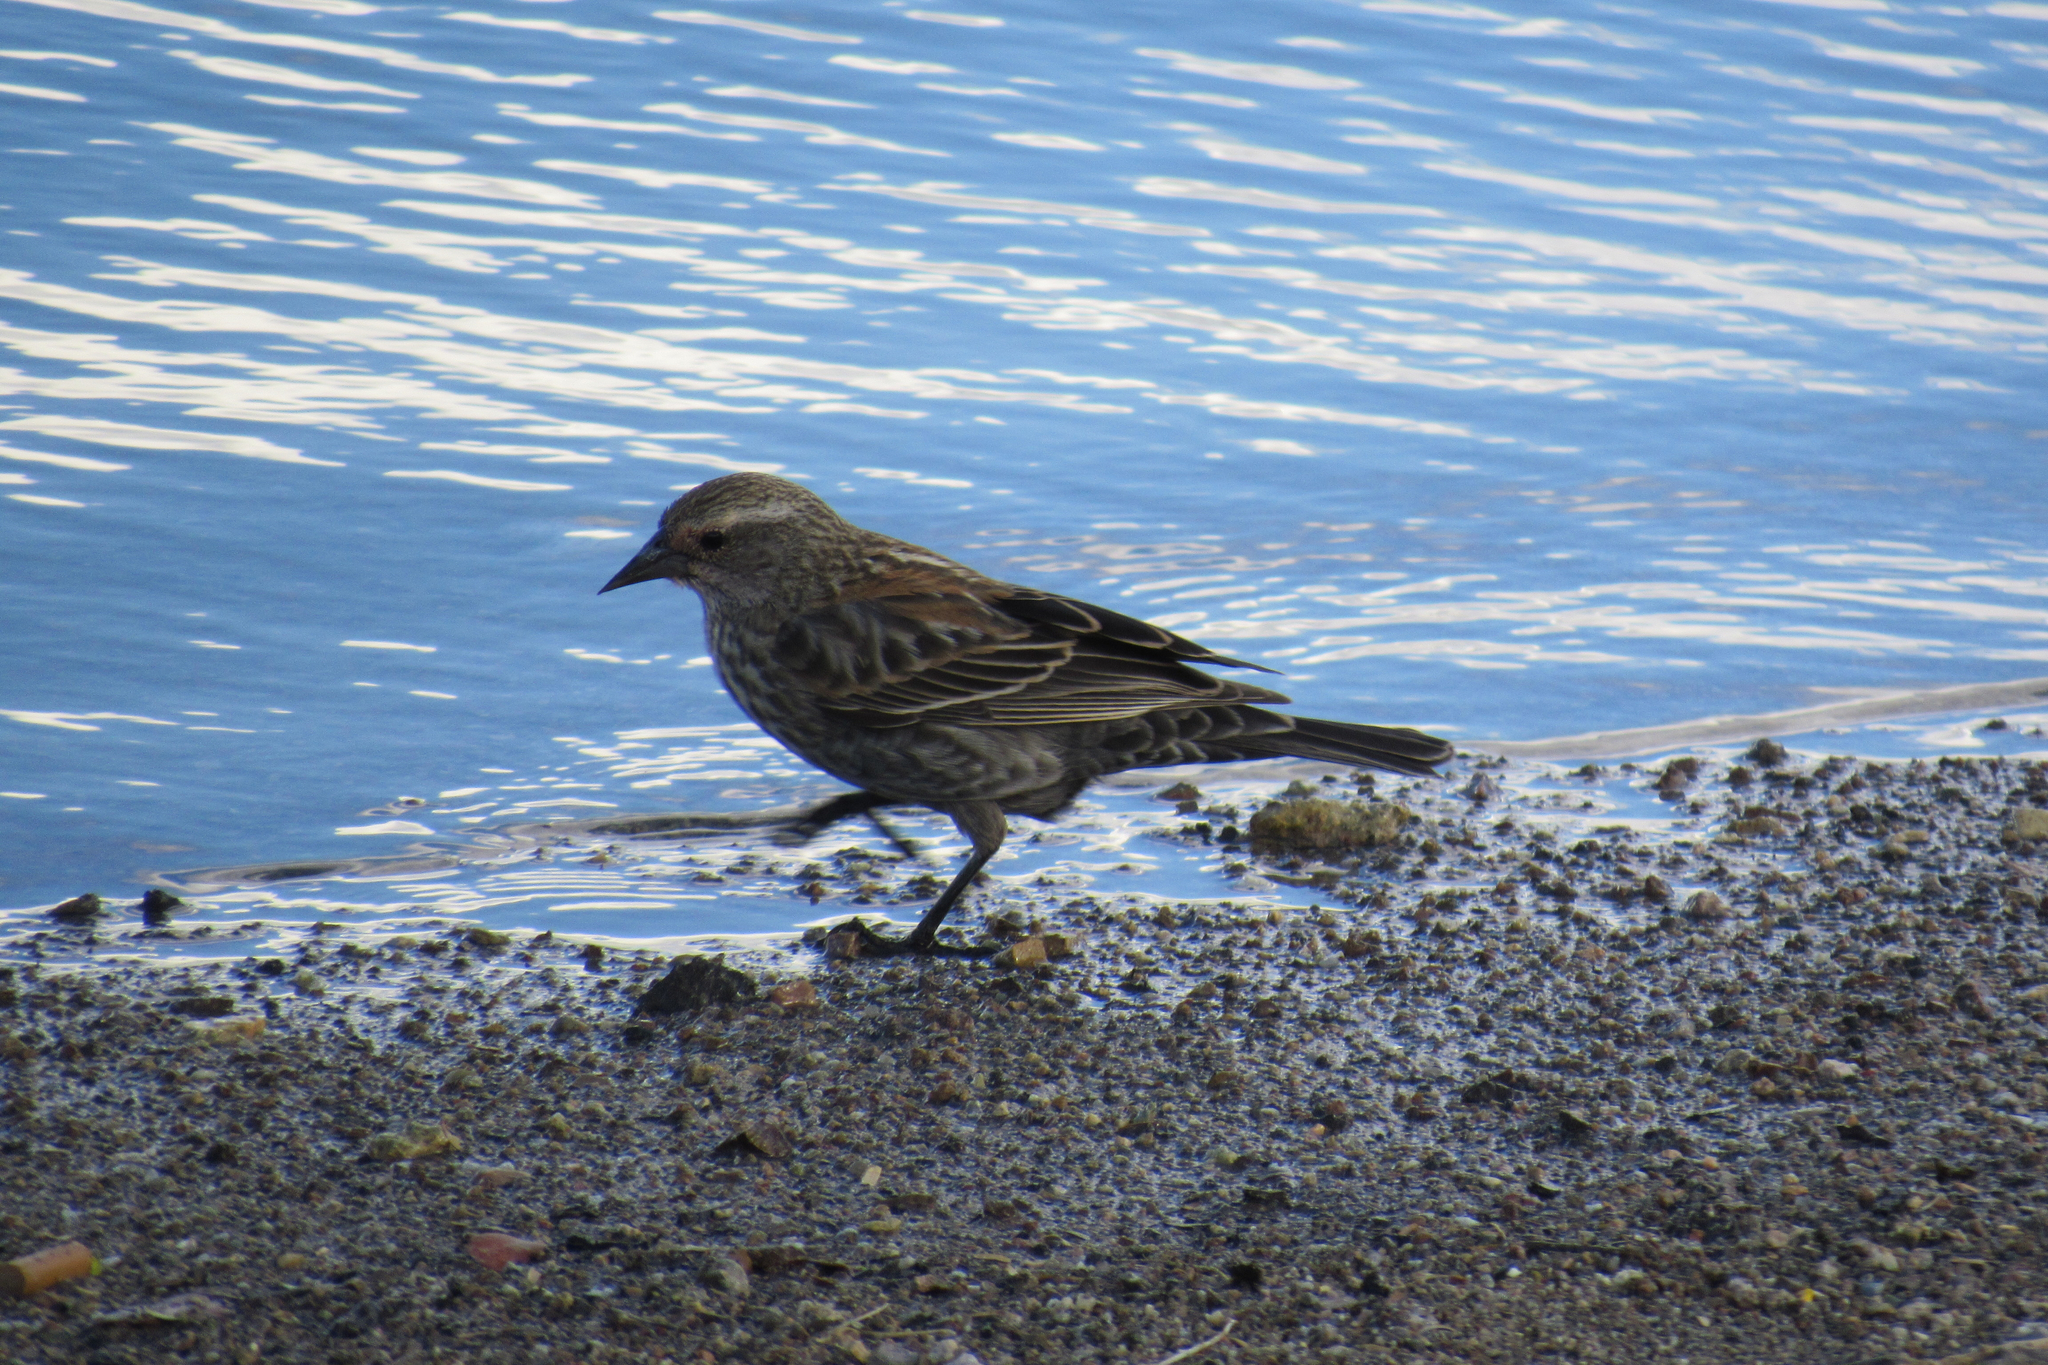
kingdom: Animalia
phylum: Chordata
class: Aves
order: Passeriformes
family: Icteridae
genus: Agelaius
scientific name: Agelaius phoeniceus
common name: Red-winged blackbird
